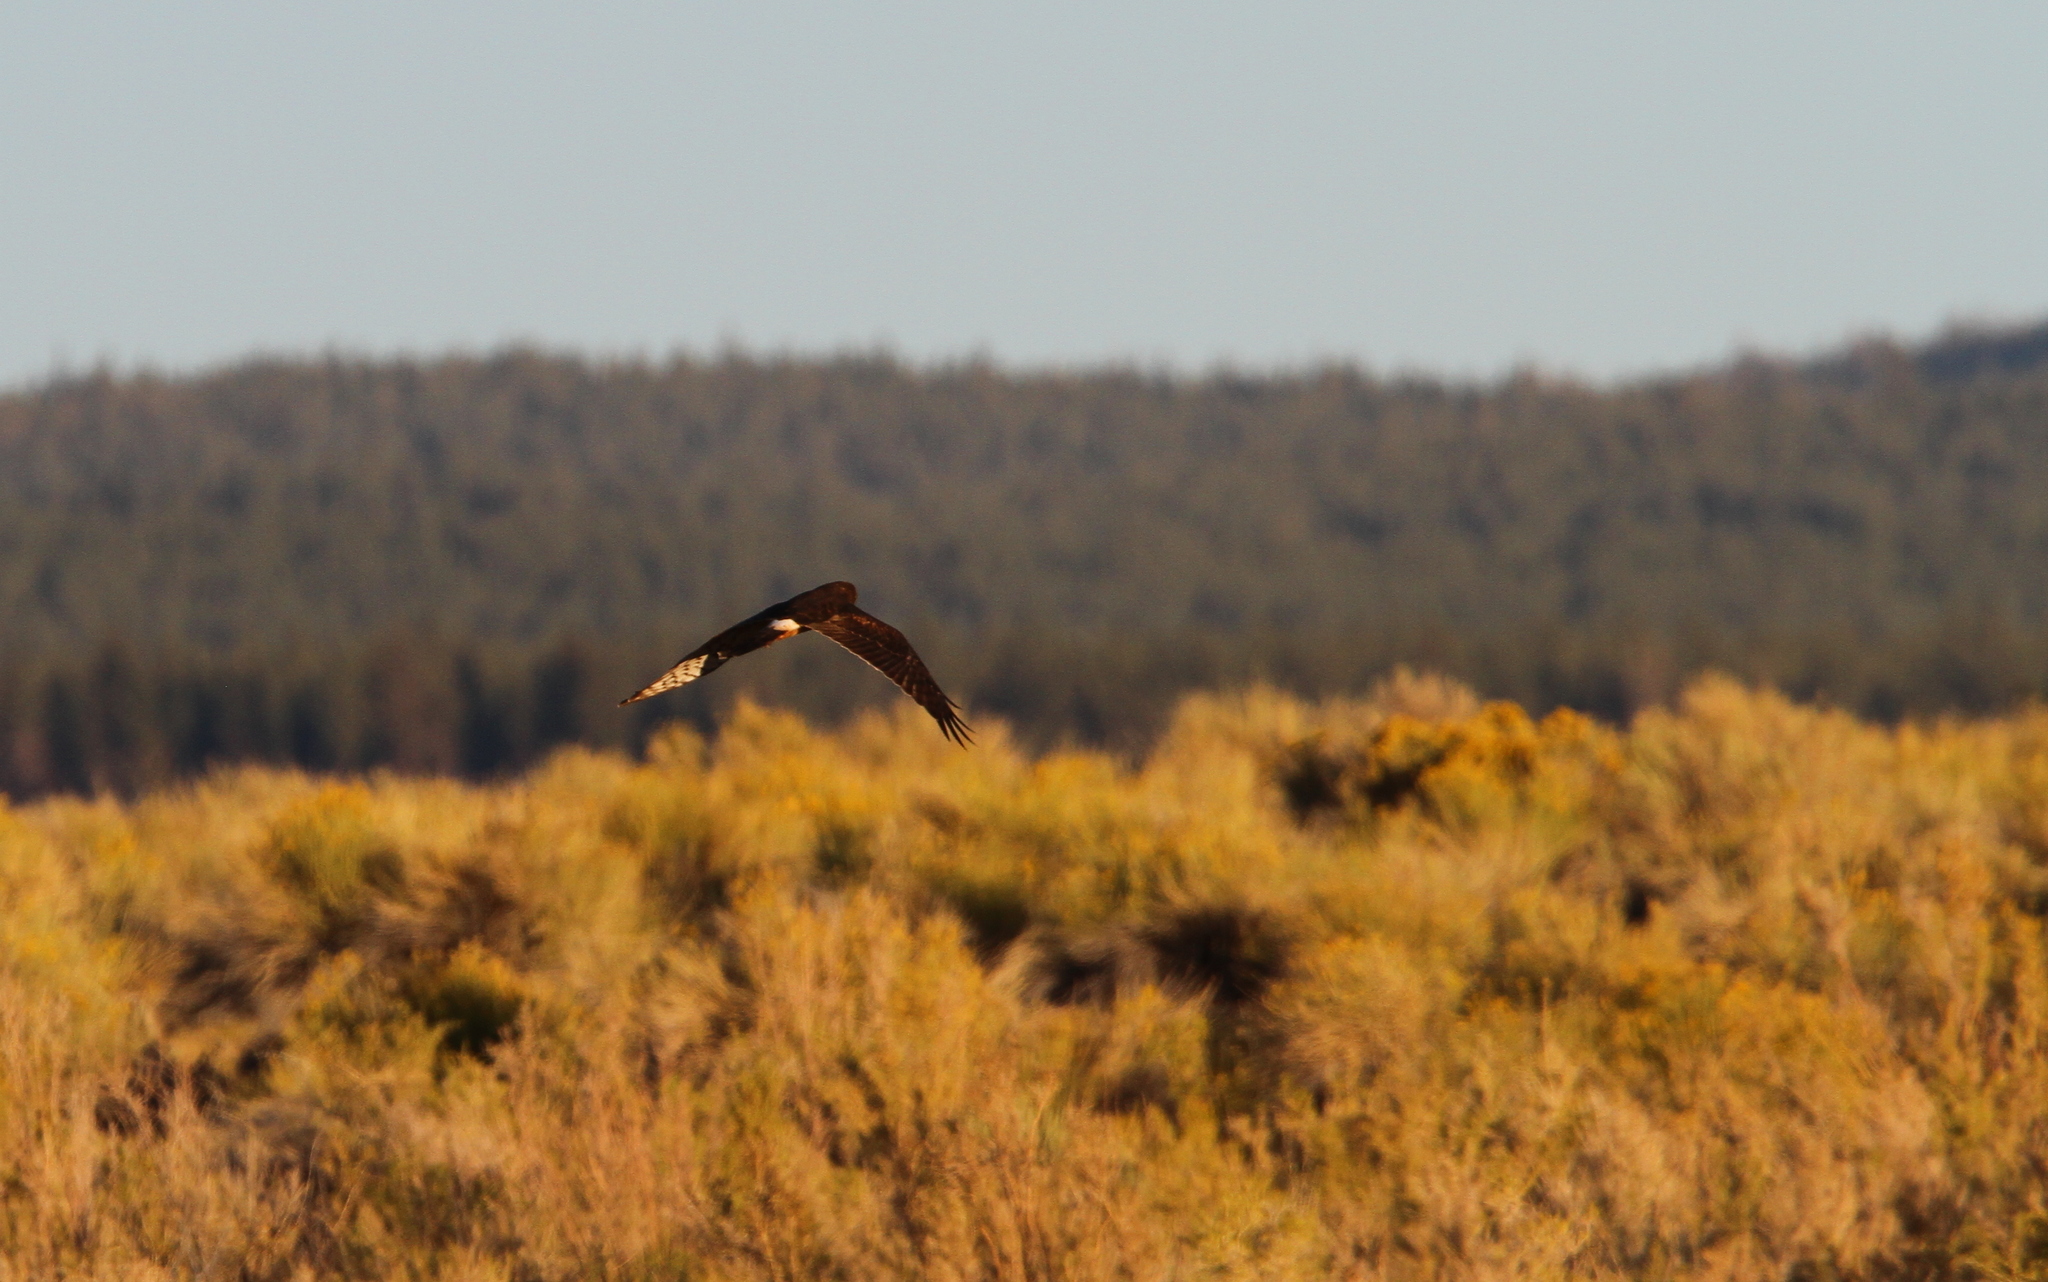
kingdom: Animalia
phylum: Chordata
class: Aves
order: Accipitriformes
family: Accipitridae
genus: Circus
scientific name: Circus cyaneus
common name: Hen harrier
